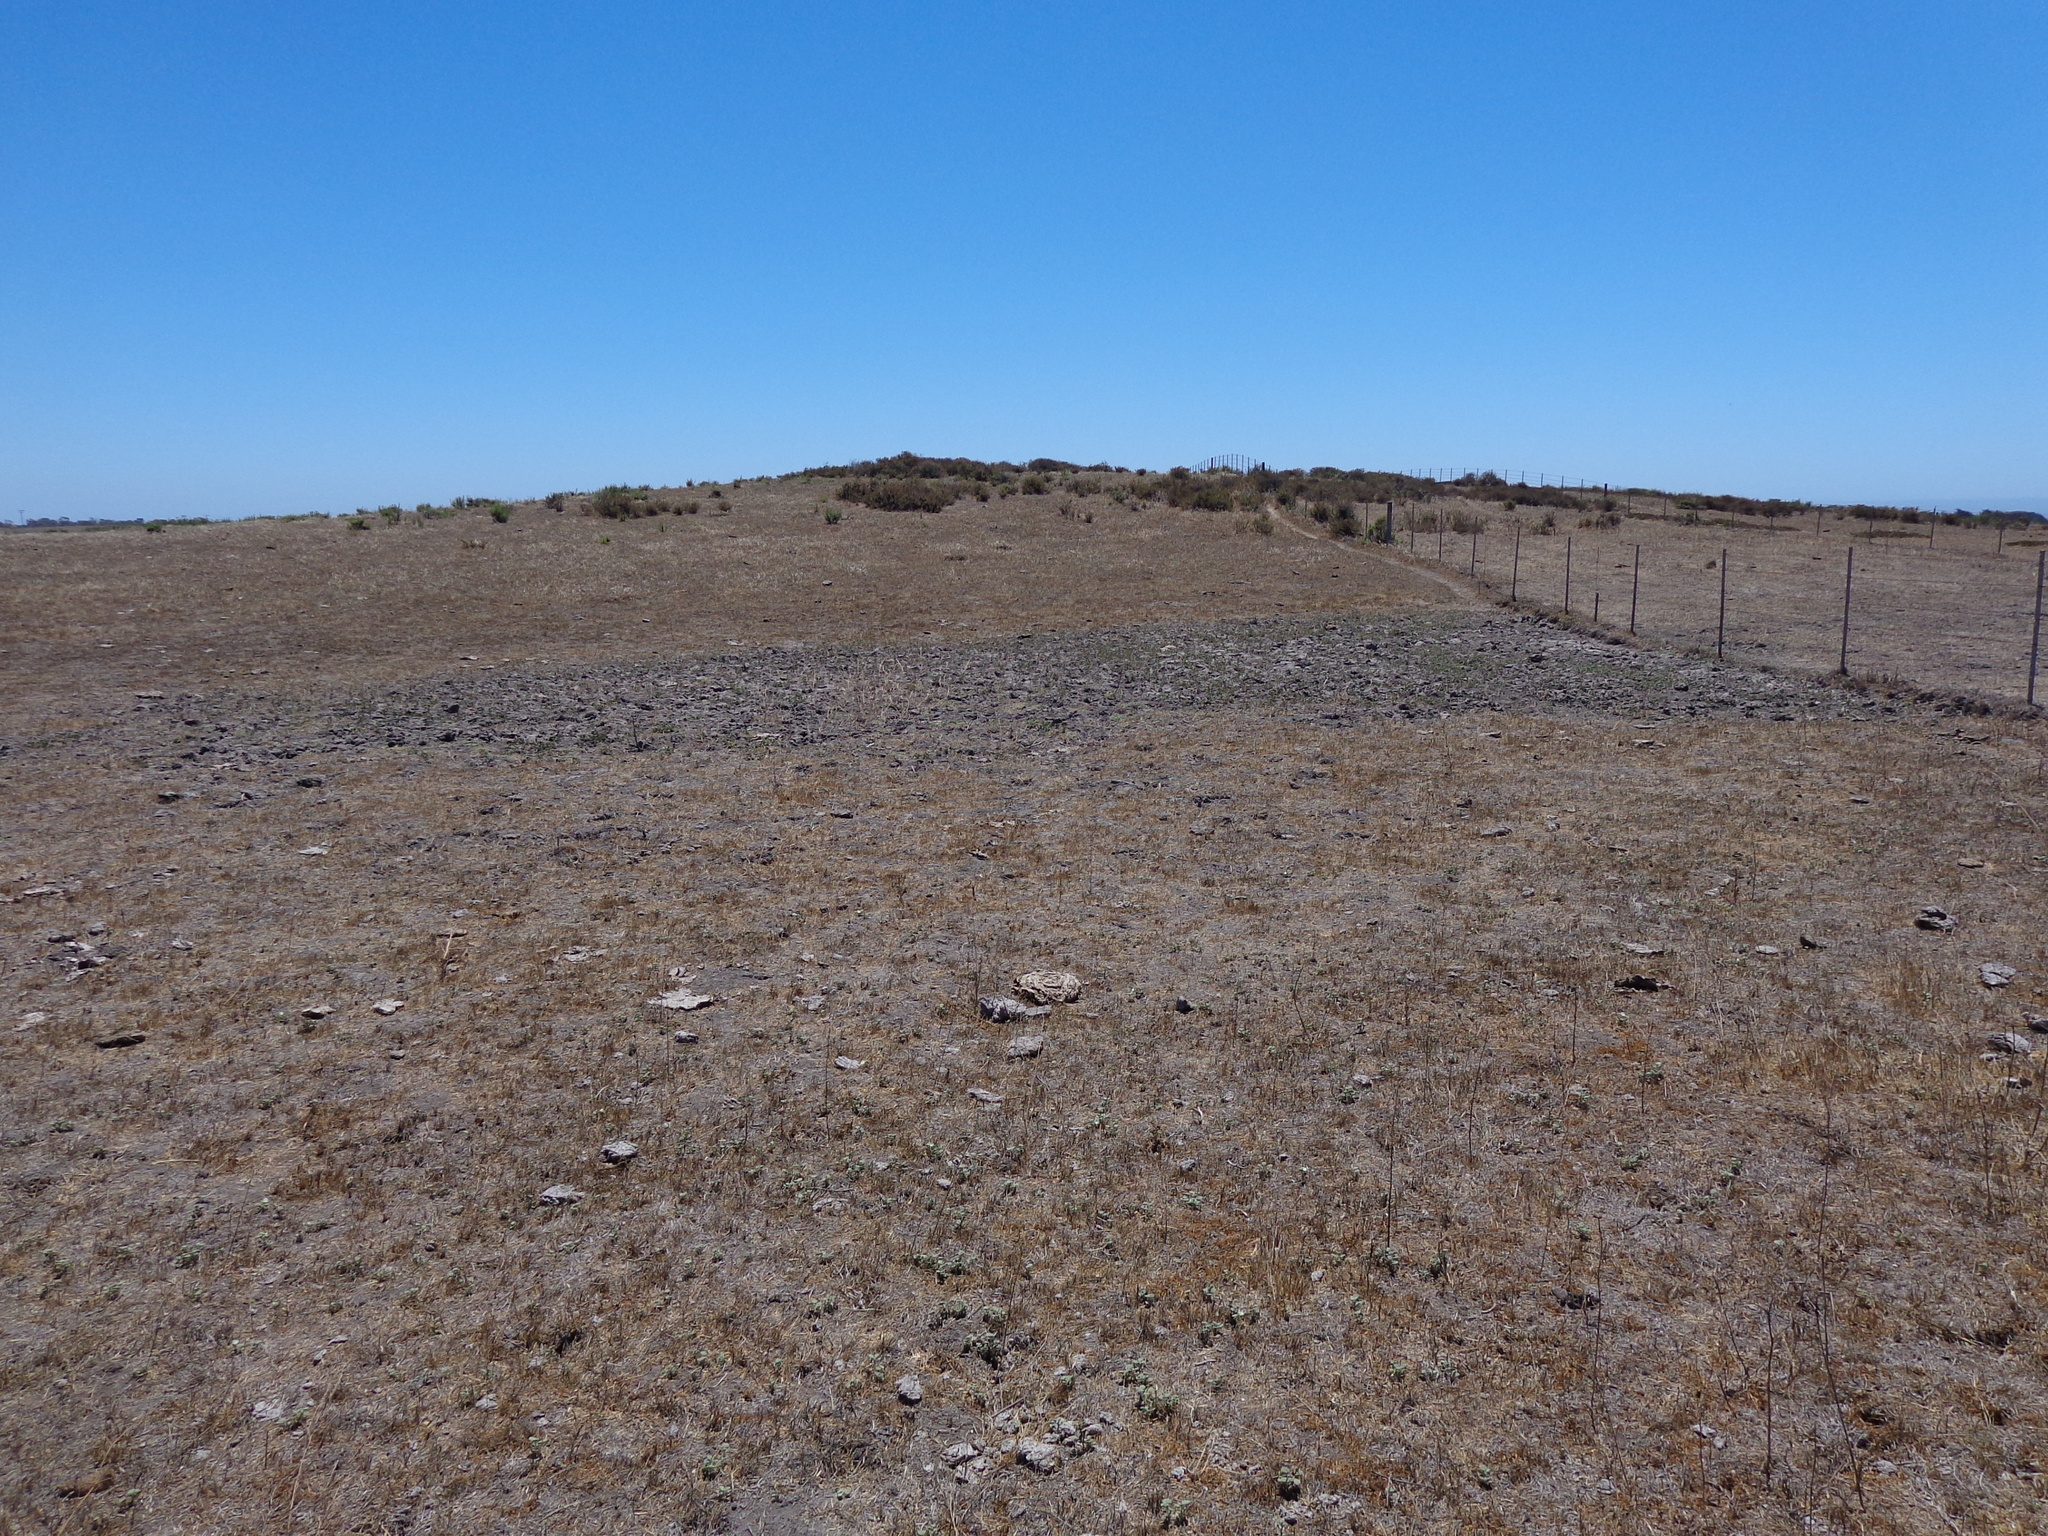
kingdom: Plantae
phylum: Tracheophyta
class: Magnoliopsida
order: Apiales
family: Apiaceae
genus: Eryngium
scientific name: Eryngium vaseyi
